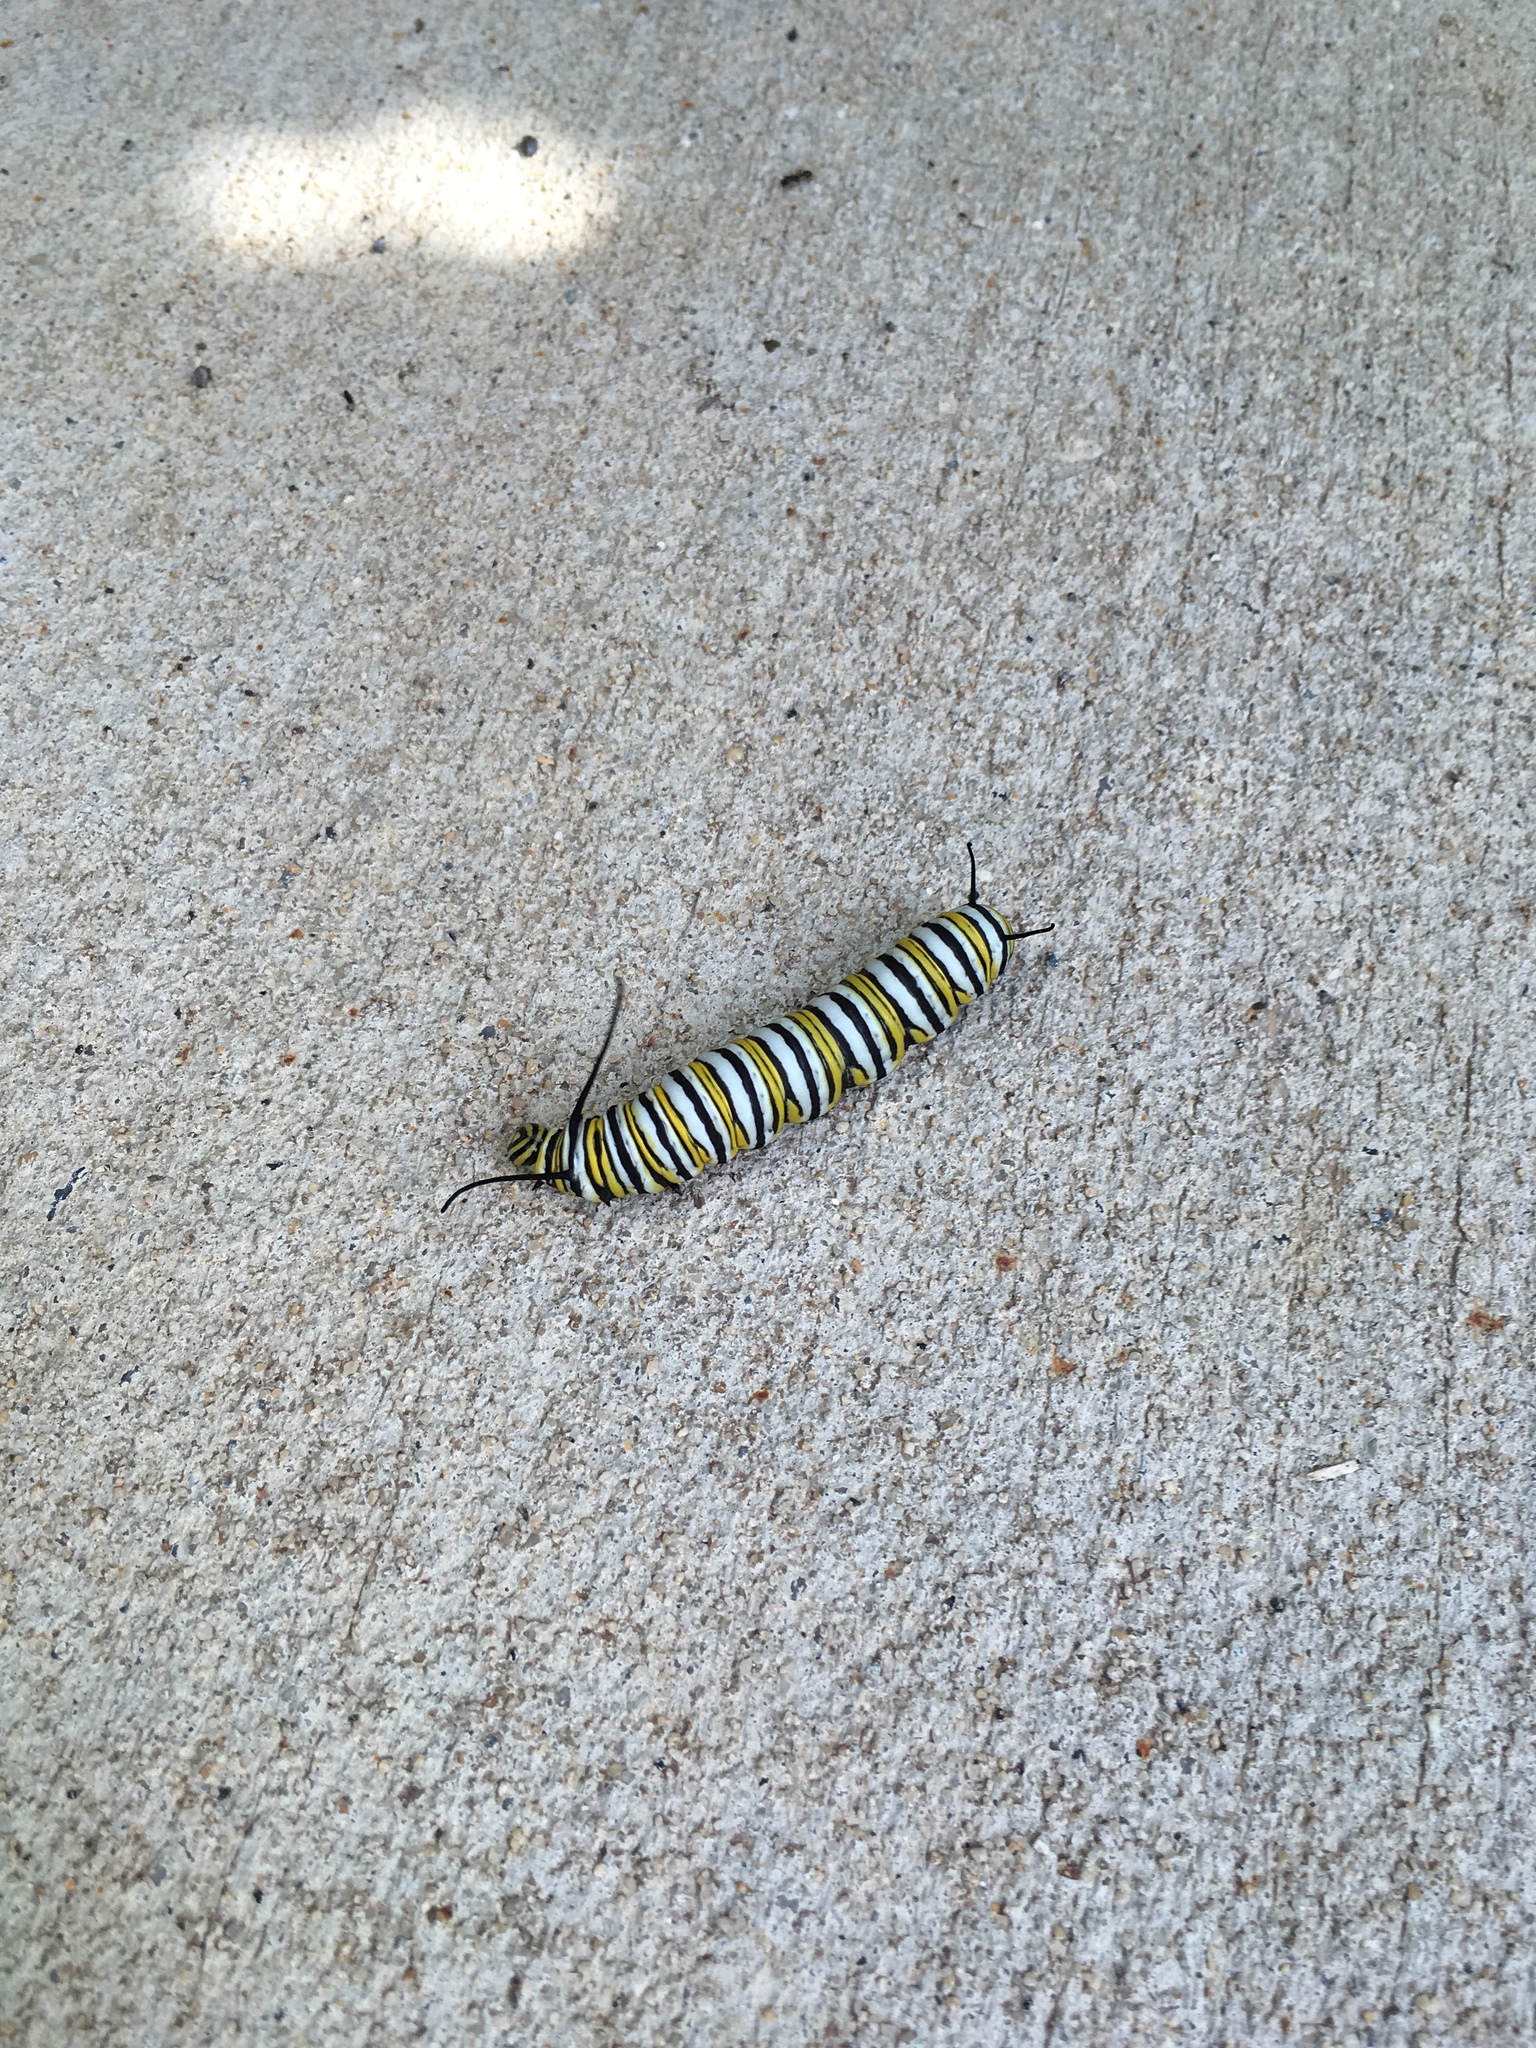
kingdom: Animalia
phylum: Arthropoda
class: Insecta
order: Lepidoptera
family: Nymphalidae
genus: Danaus
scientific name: Danaus plexippus
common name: Monarch
